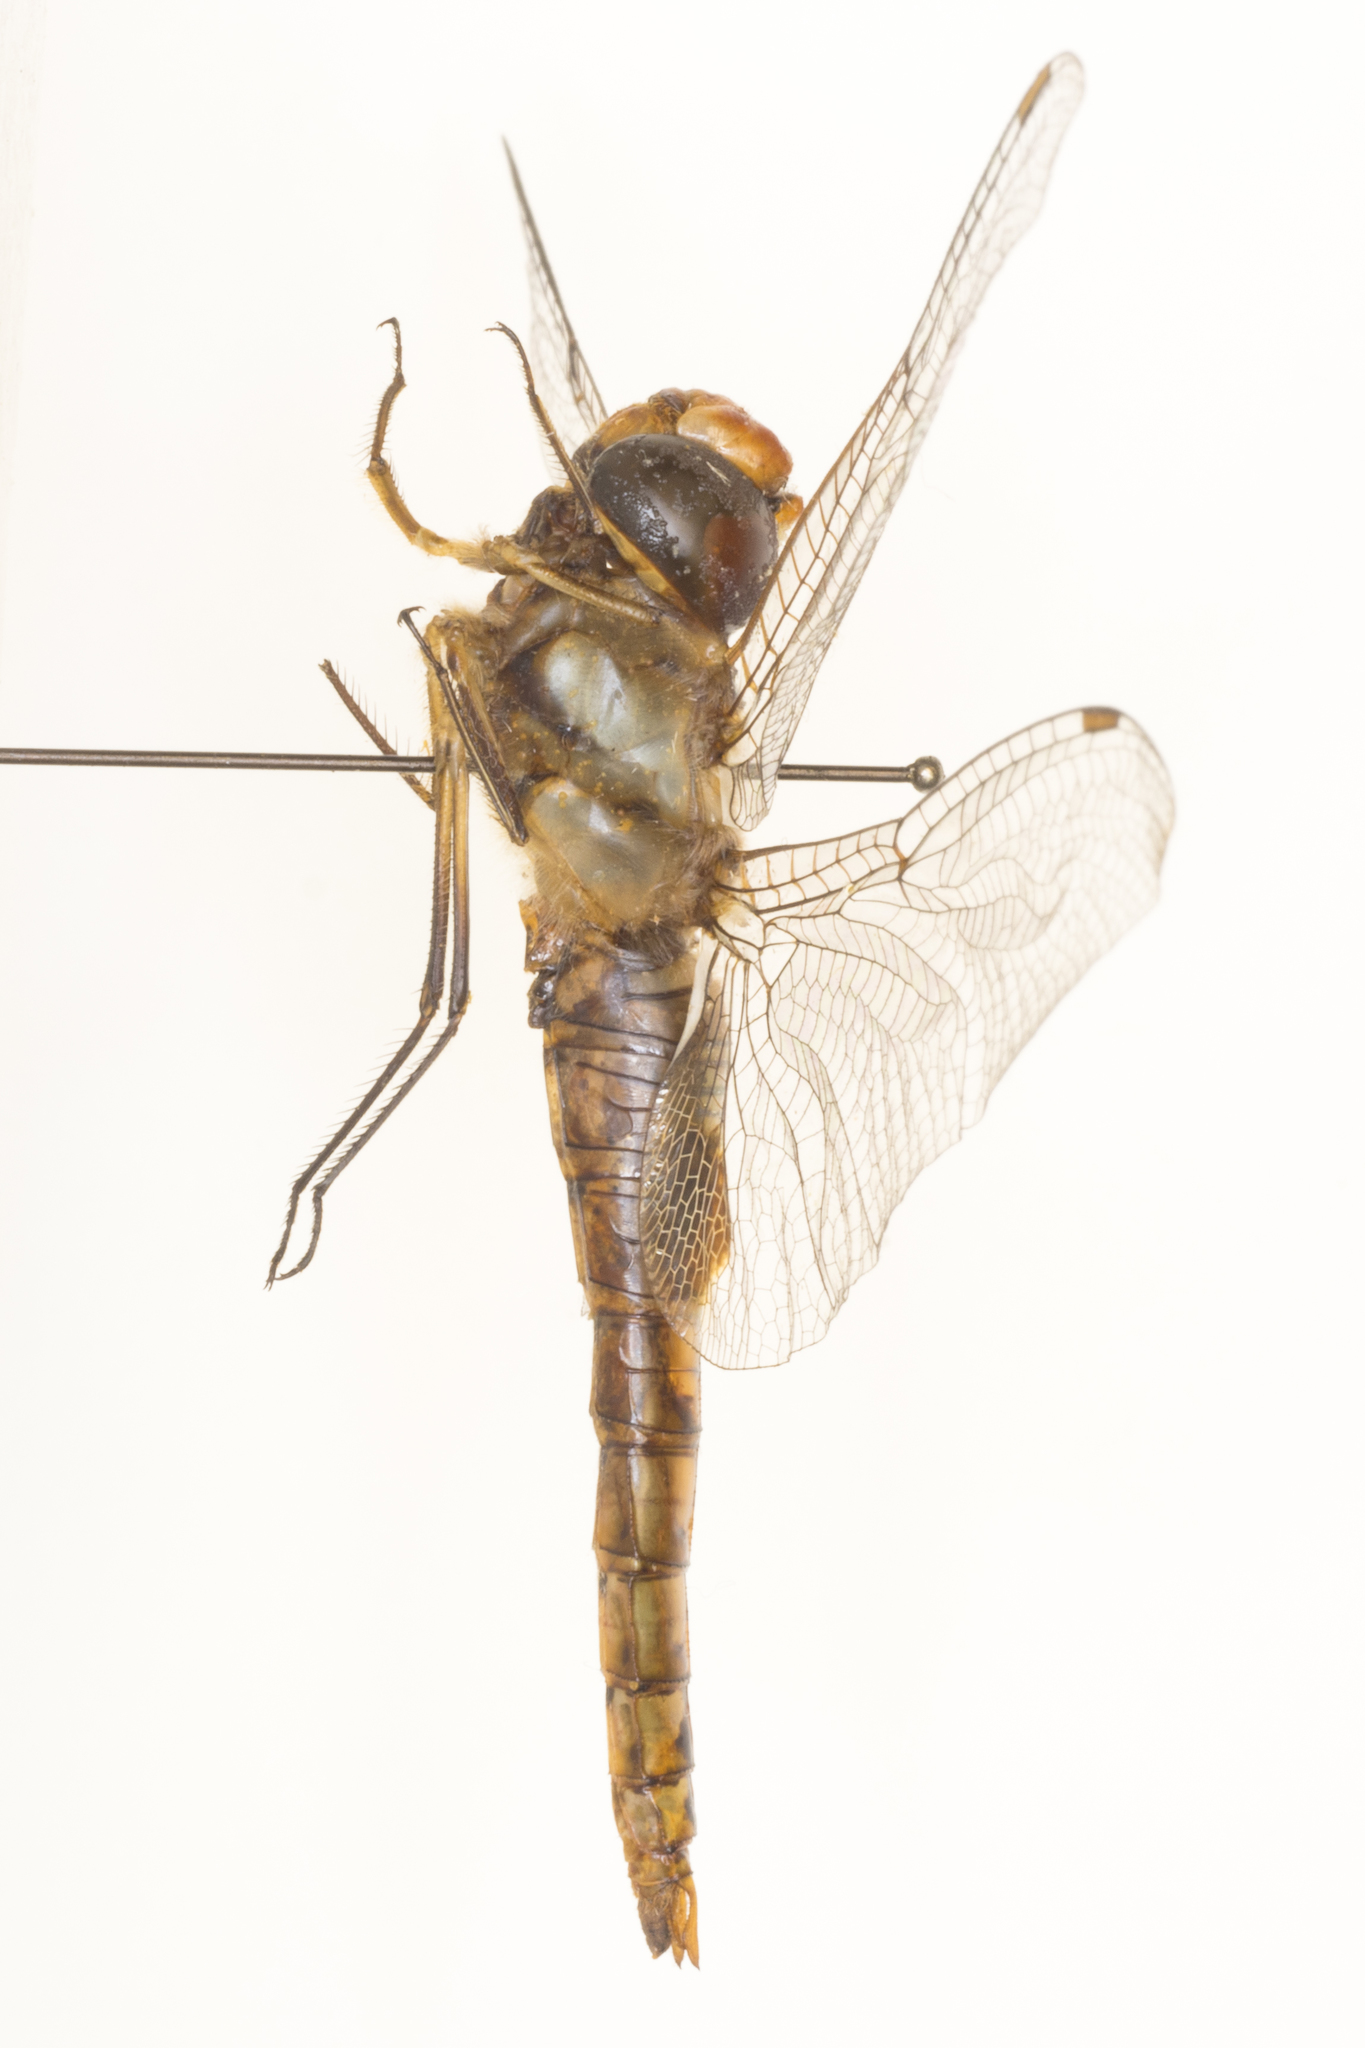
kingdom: Animalia
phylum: Arthropoda
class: Insecta
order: Odonata
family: Libellulidae
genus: Pantala
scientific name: Pantala hymenaea
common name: Spot-winged glider
